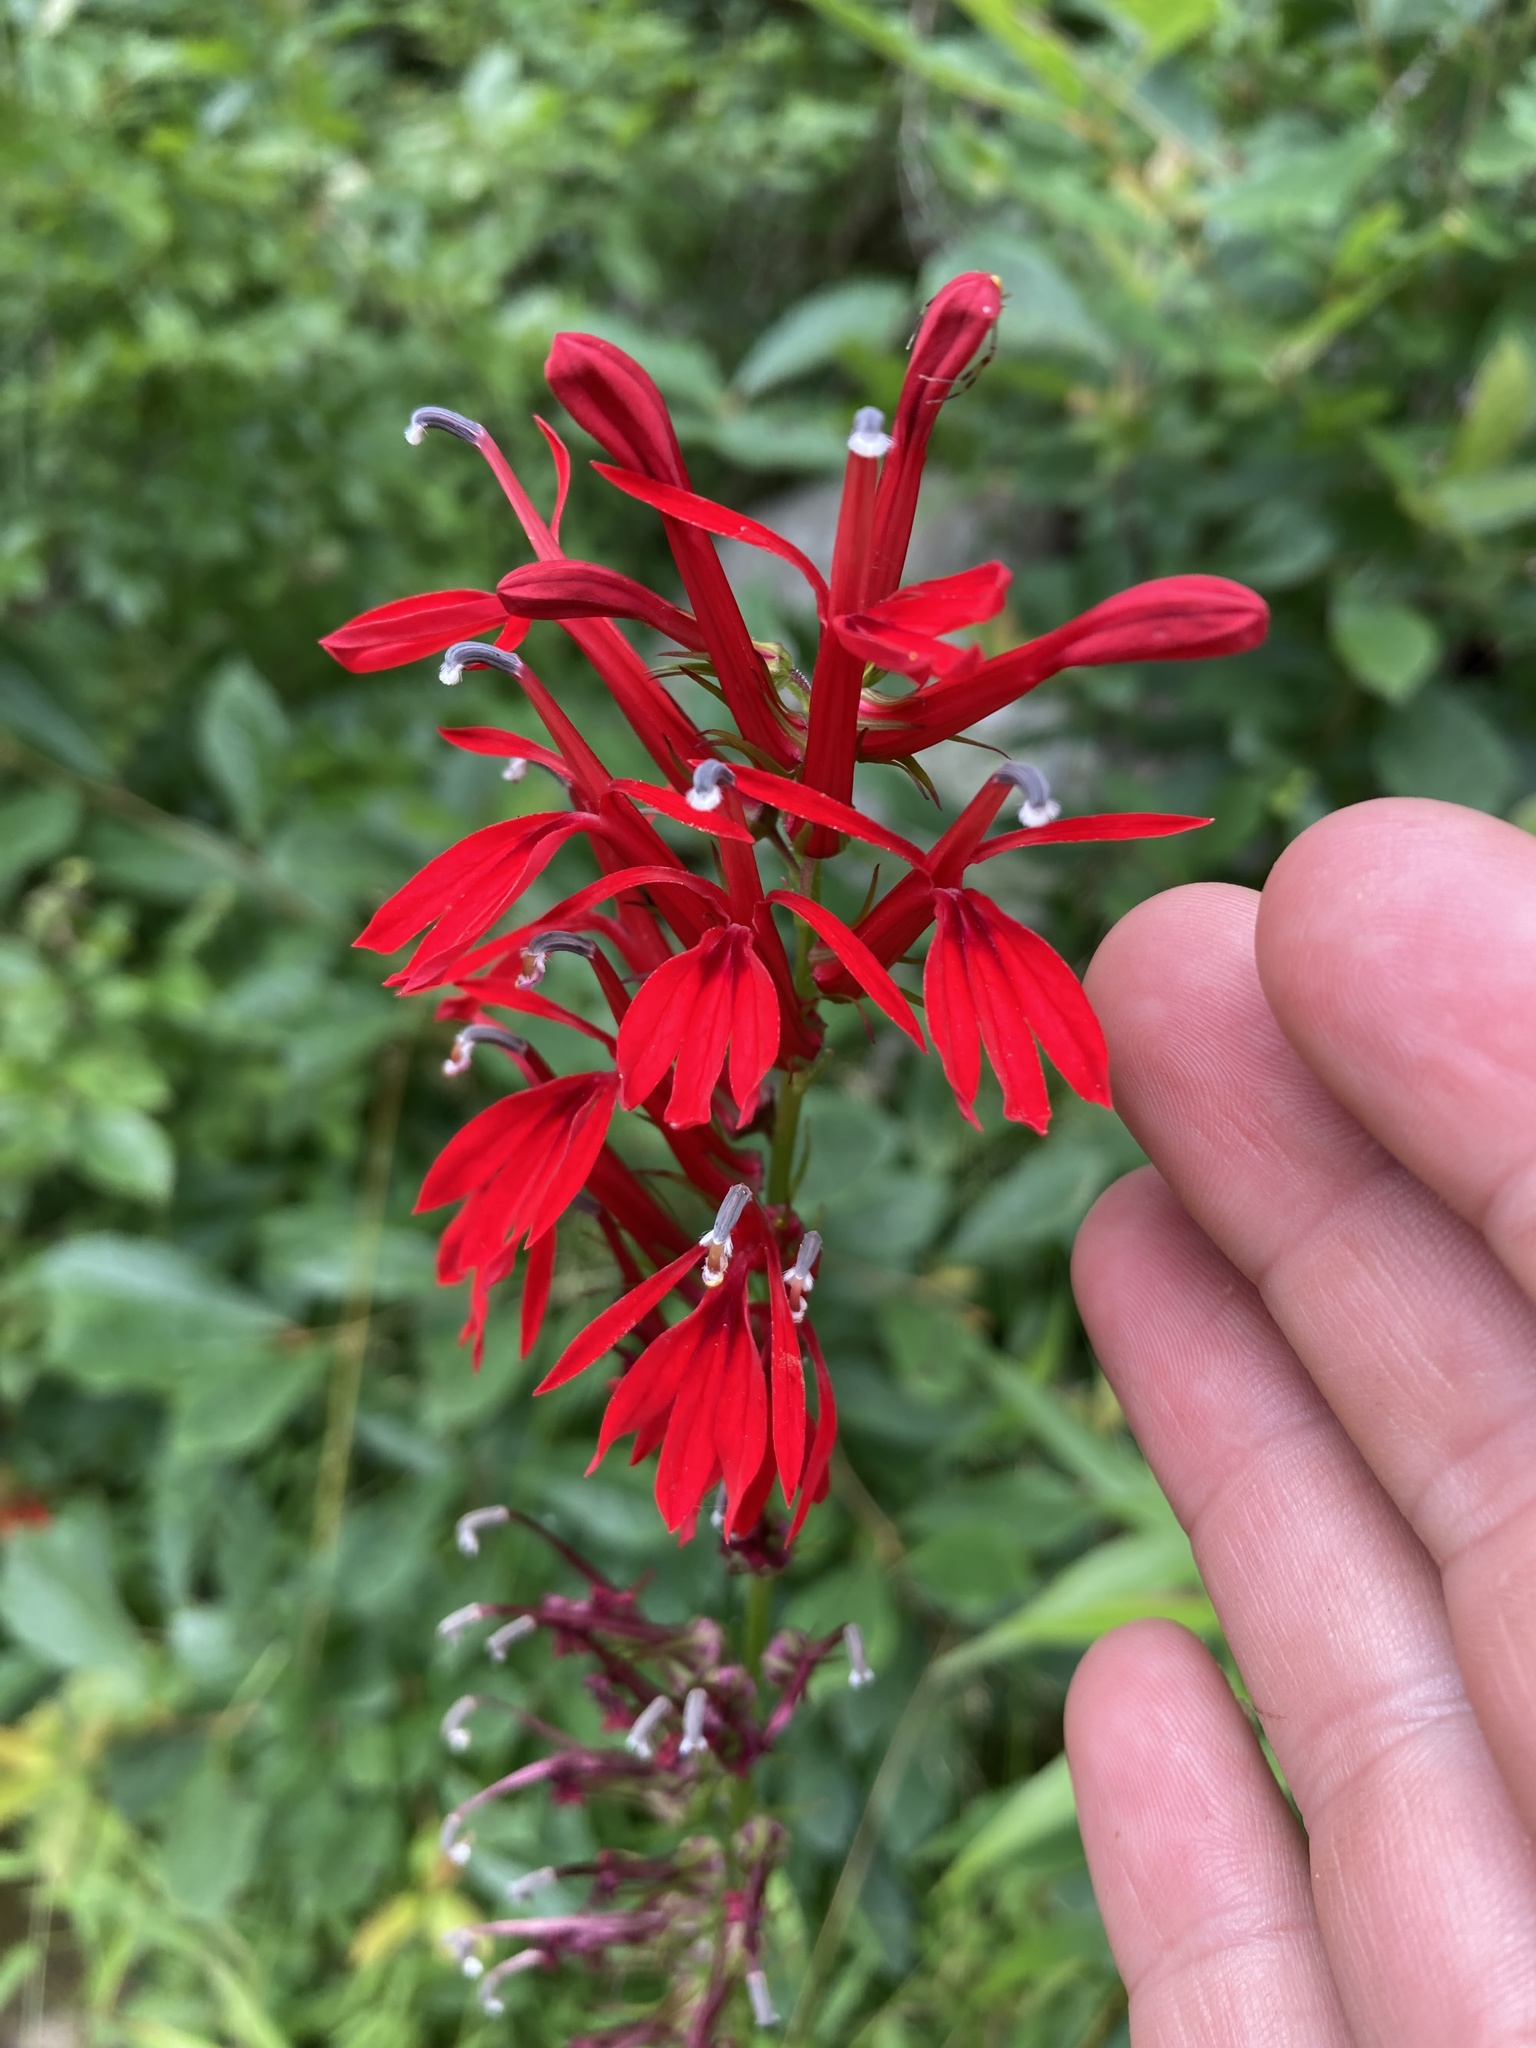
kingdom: Plantae
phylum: Tracheophyta
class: Magnoliopsida
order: Asterales
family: Campanulaceae
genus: Lobelia
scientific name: Lobelia cardinalis
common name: Cardinal flower
